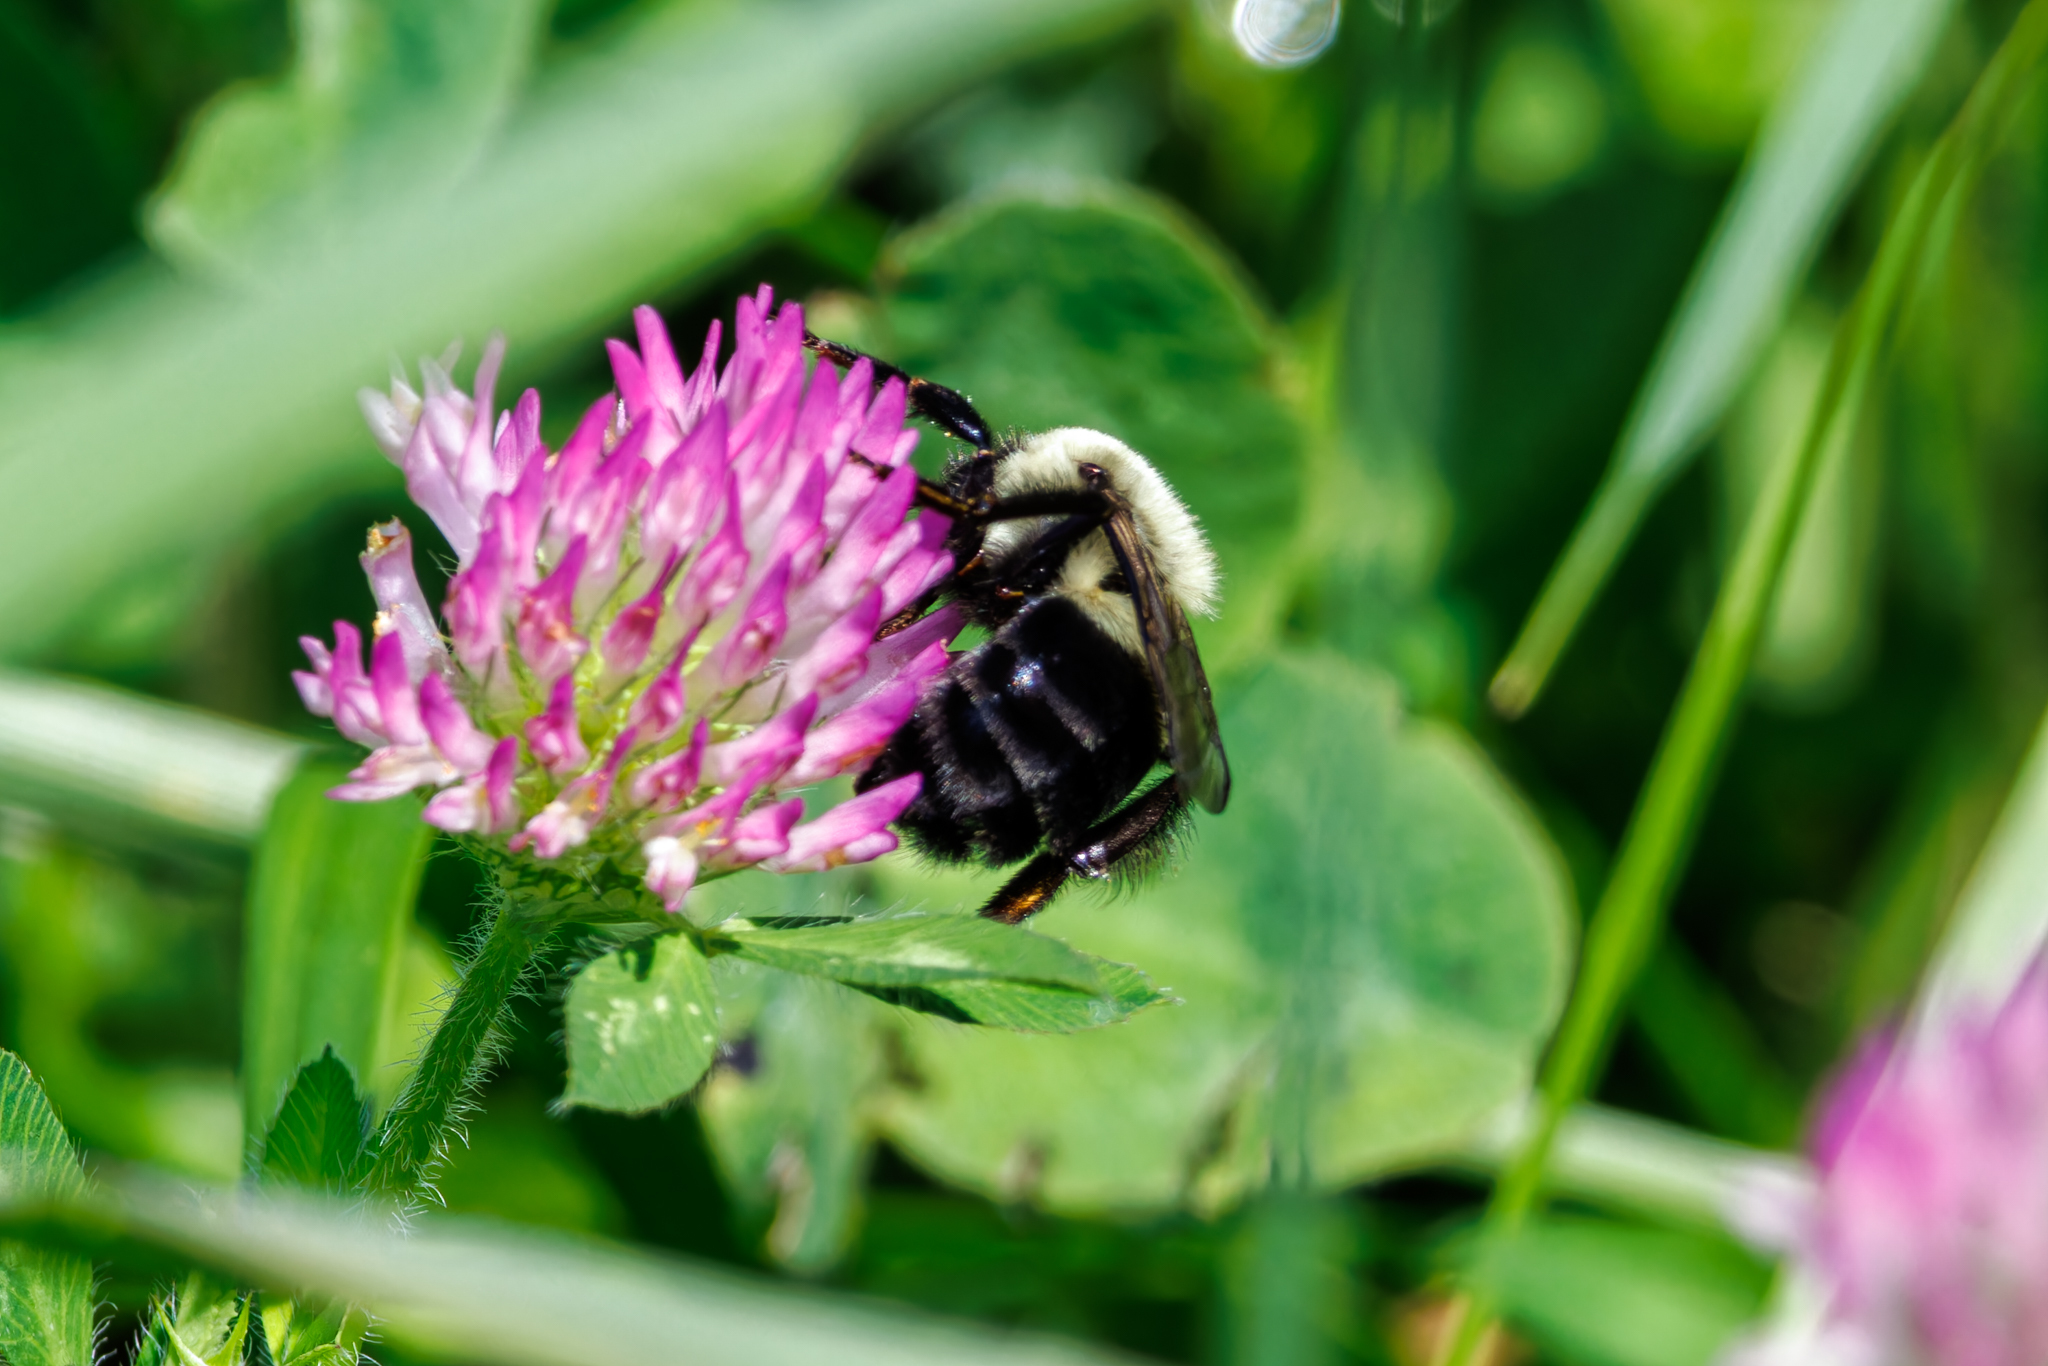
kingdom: Animalia
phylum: Arthropoda
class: Insecta
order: Hymenoptera
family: Apidae
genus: Bombus
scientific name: Bombus impatiens
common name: Common eastern bumble bee
